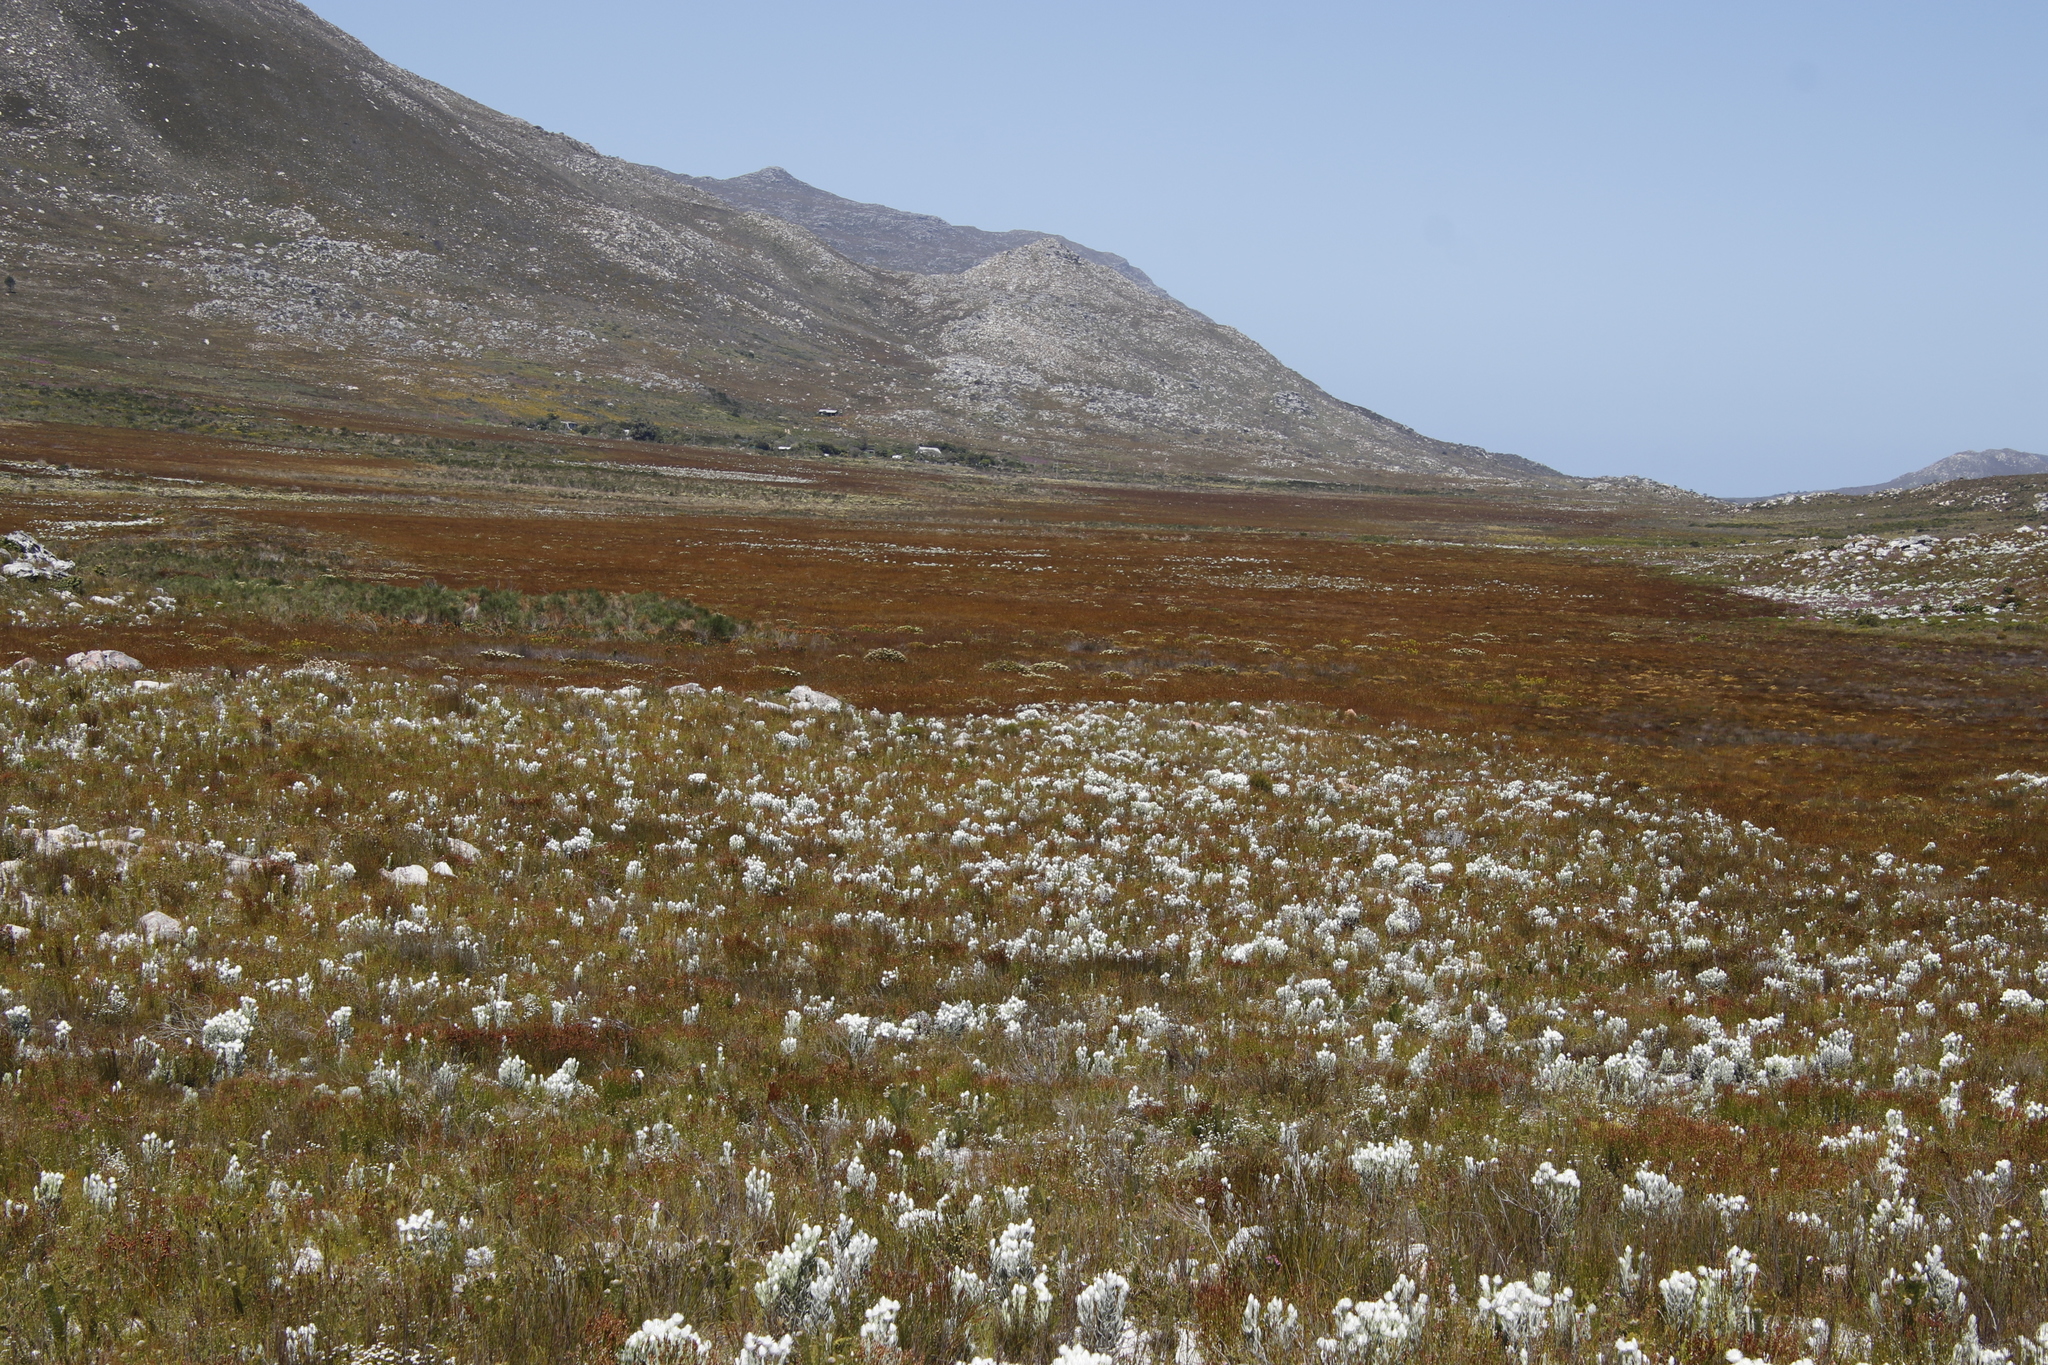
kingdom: Plantae
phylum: Tracheophyta
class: Magnoliopsida
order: Asterales
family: Asteraceae
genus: Syncarpha
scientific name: Syncarpha vestita
